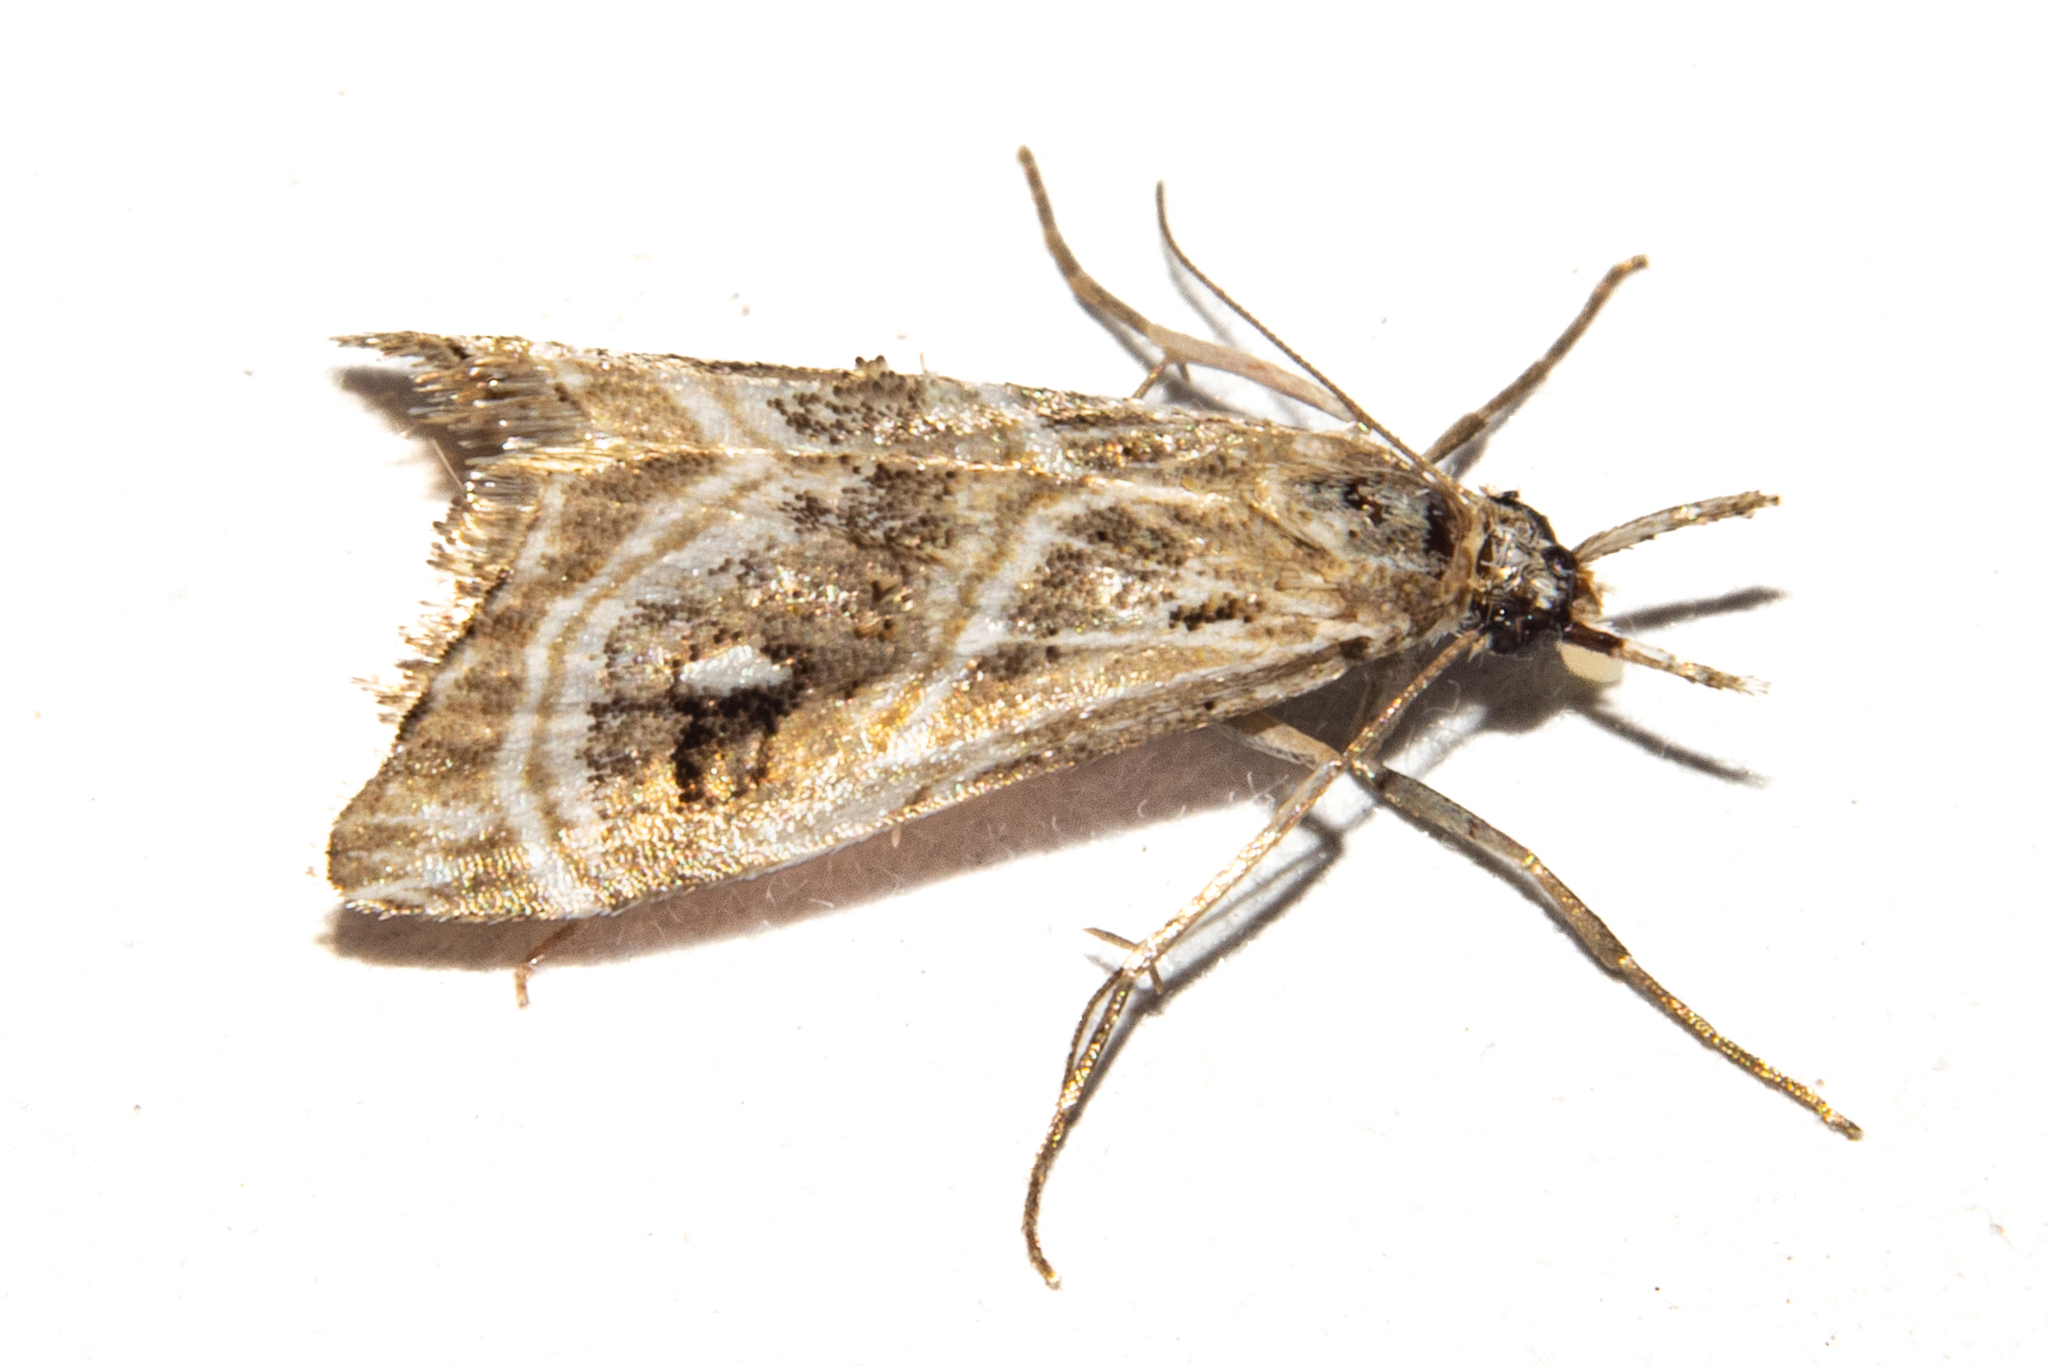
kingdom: Animalia
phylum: Arthropoda
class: Insecta
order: Lepidoptera
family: Crambidae
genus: Gadira
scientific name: Gadira acerella
